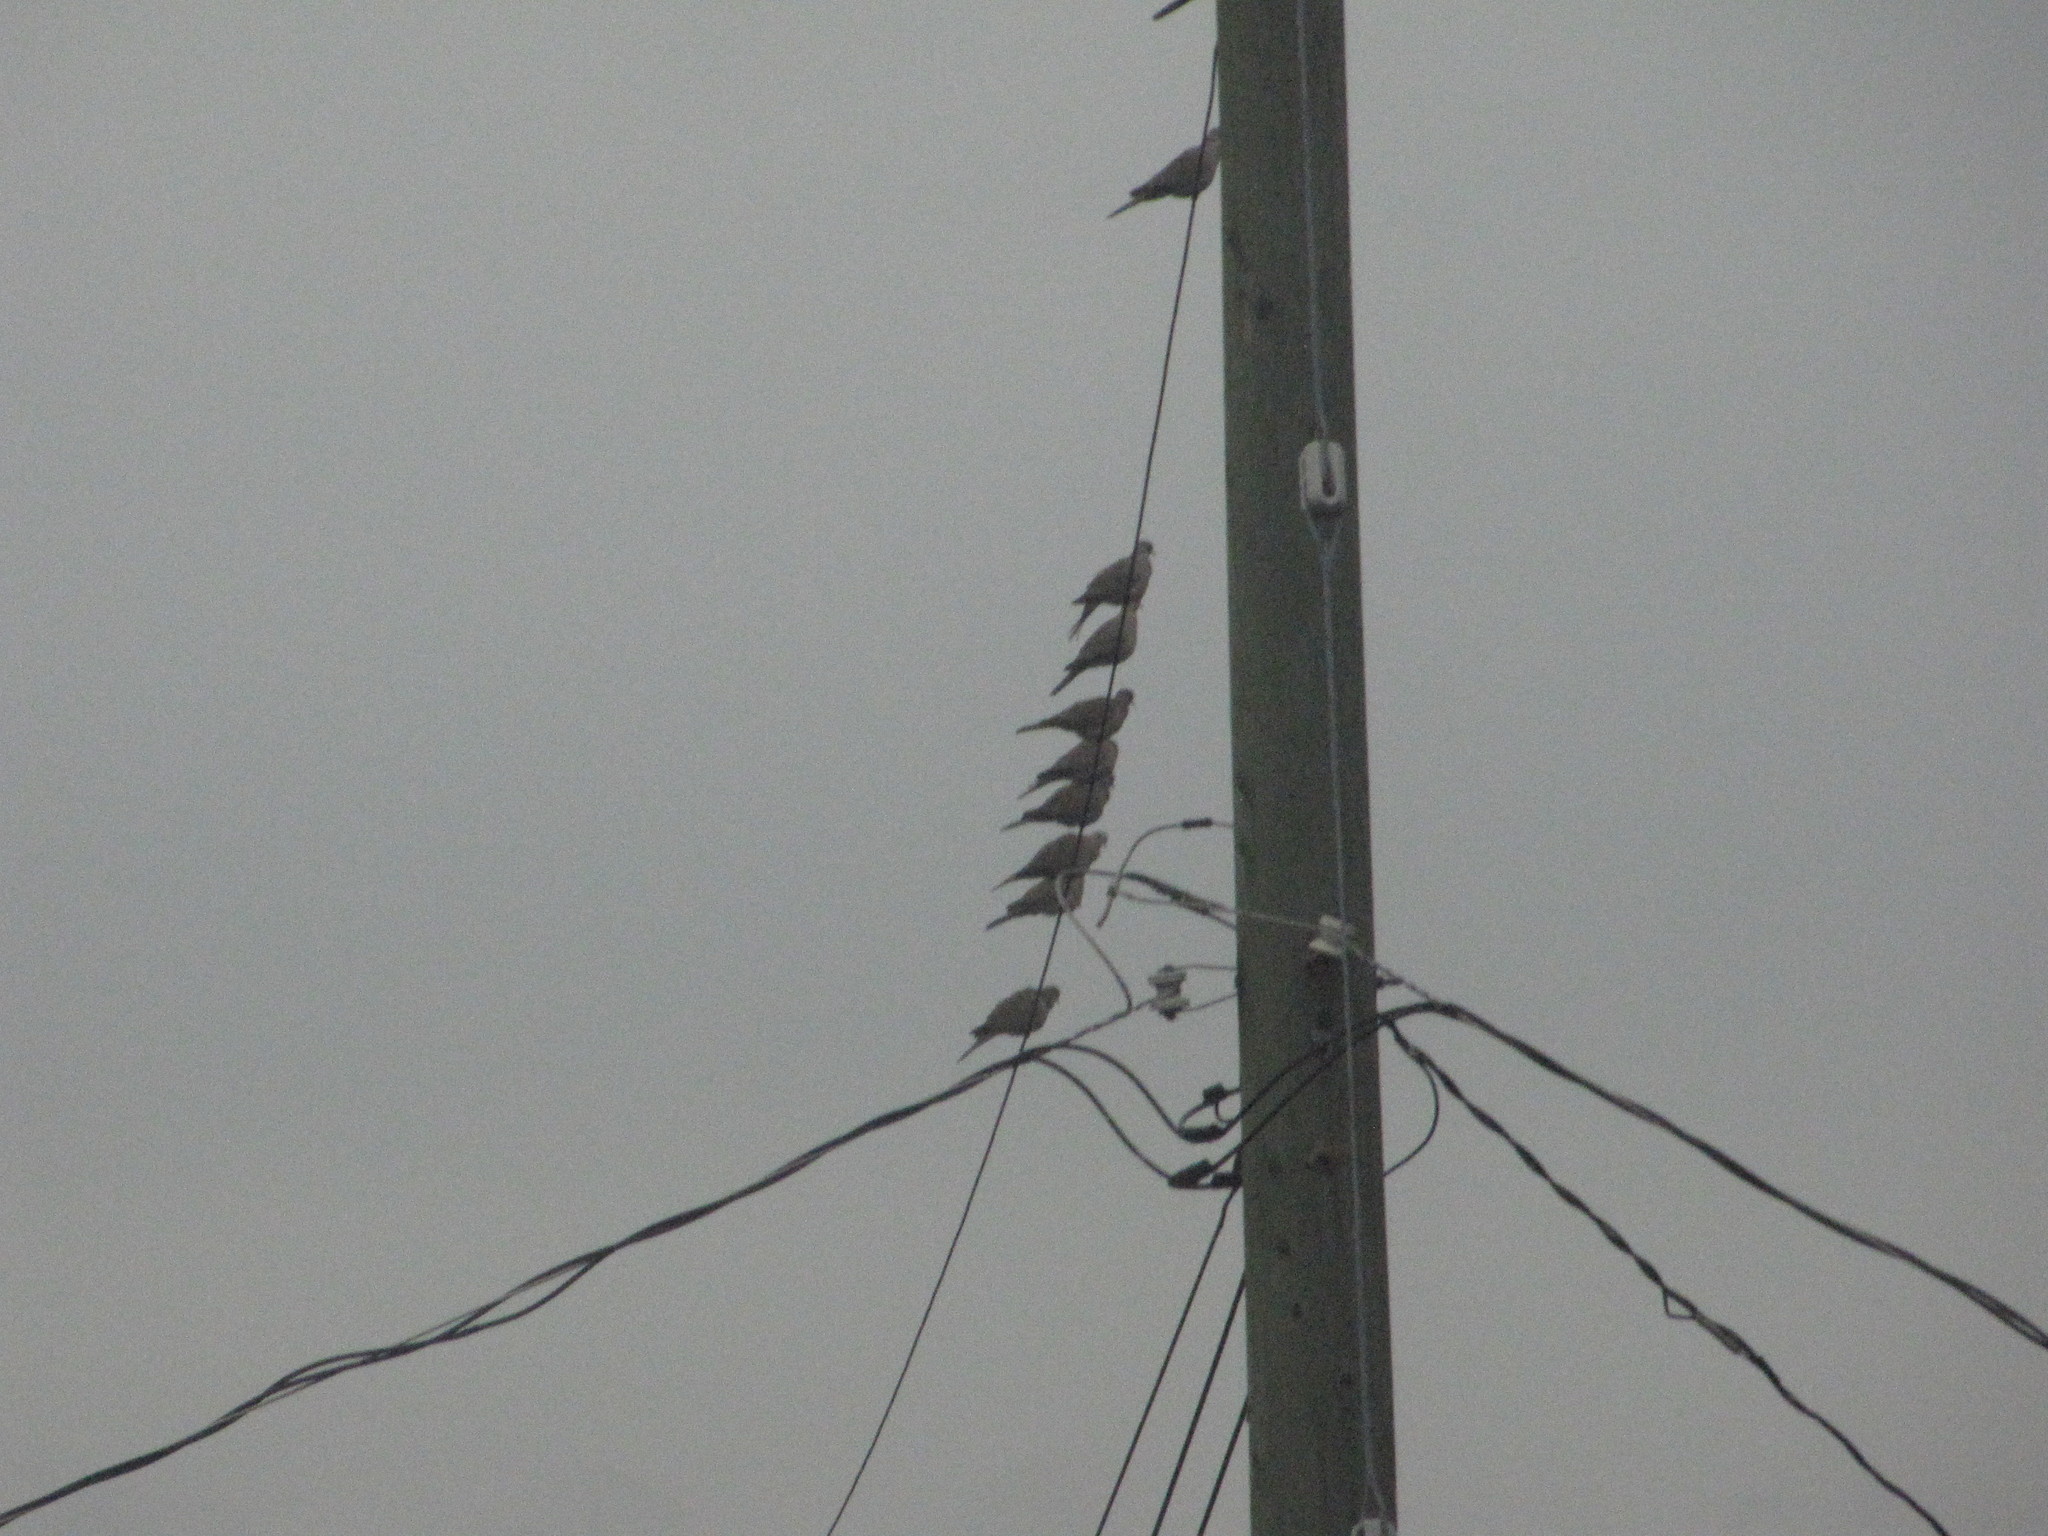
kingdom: Animalia
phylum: Chordata
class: Aves
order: Columbiformes
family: Columbidae
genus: Streptopelia
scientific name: Streptopelia decaocto
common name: Eurasian collared dove
